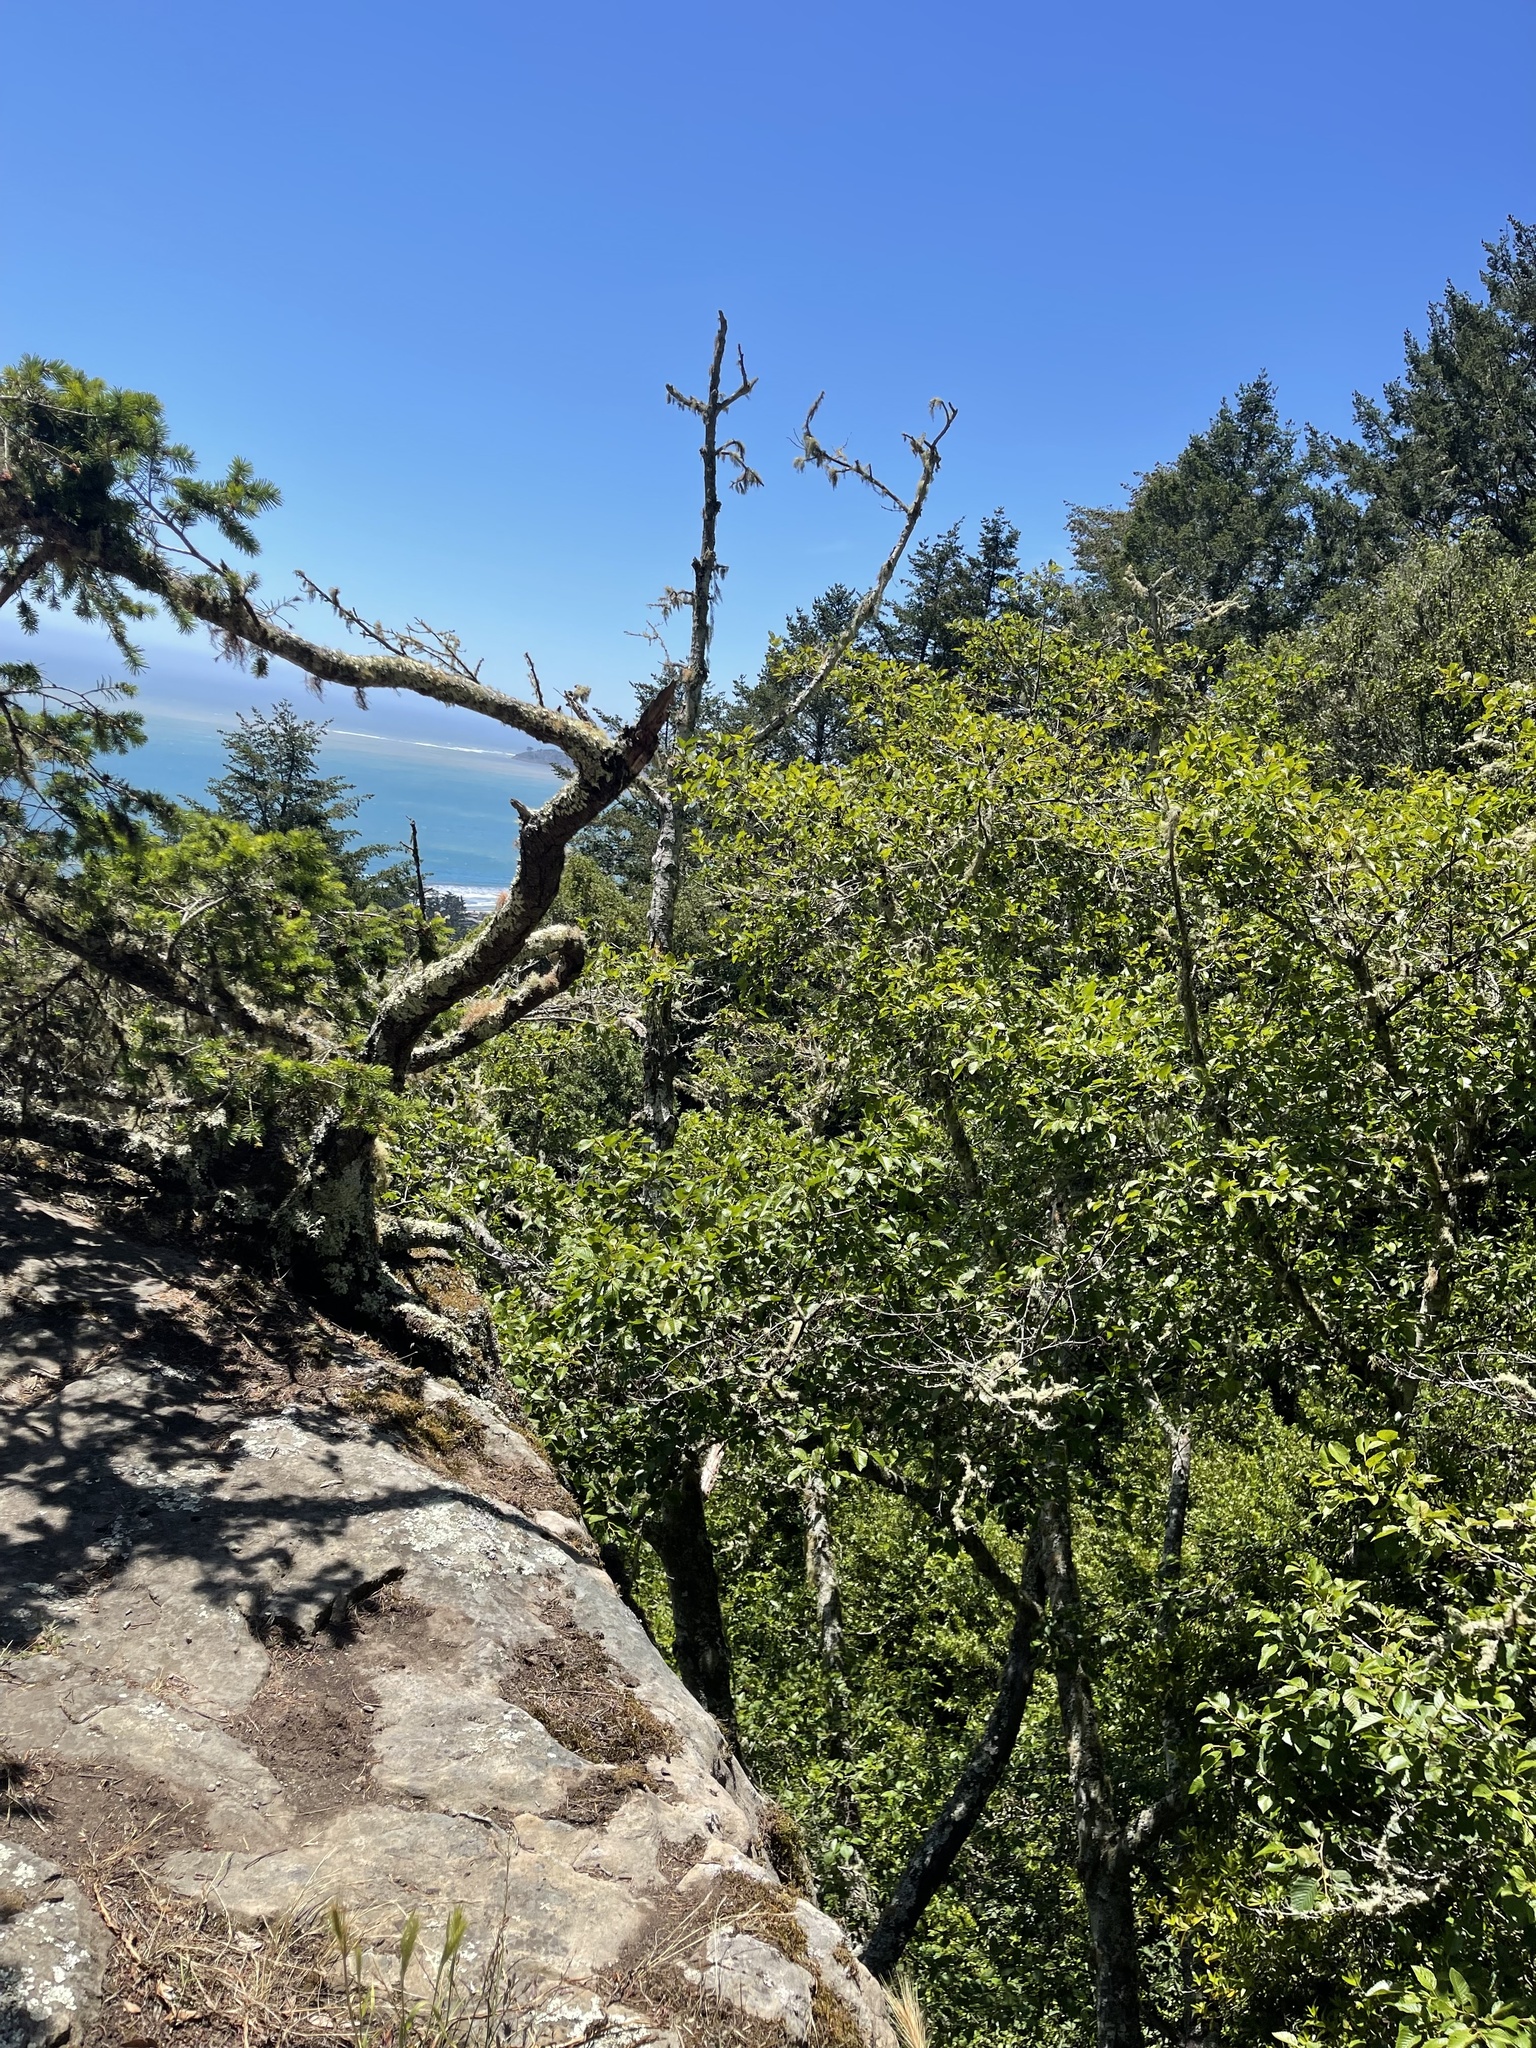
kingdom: Plantae
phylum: Tracheophyta
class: Pinopsida
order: Pinales
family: Pinaceae
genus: Pseudotsuga
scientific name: Pseudotsuga menziesii
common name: Douglas fir
